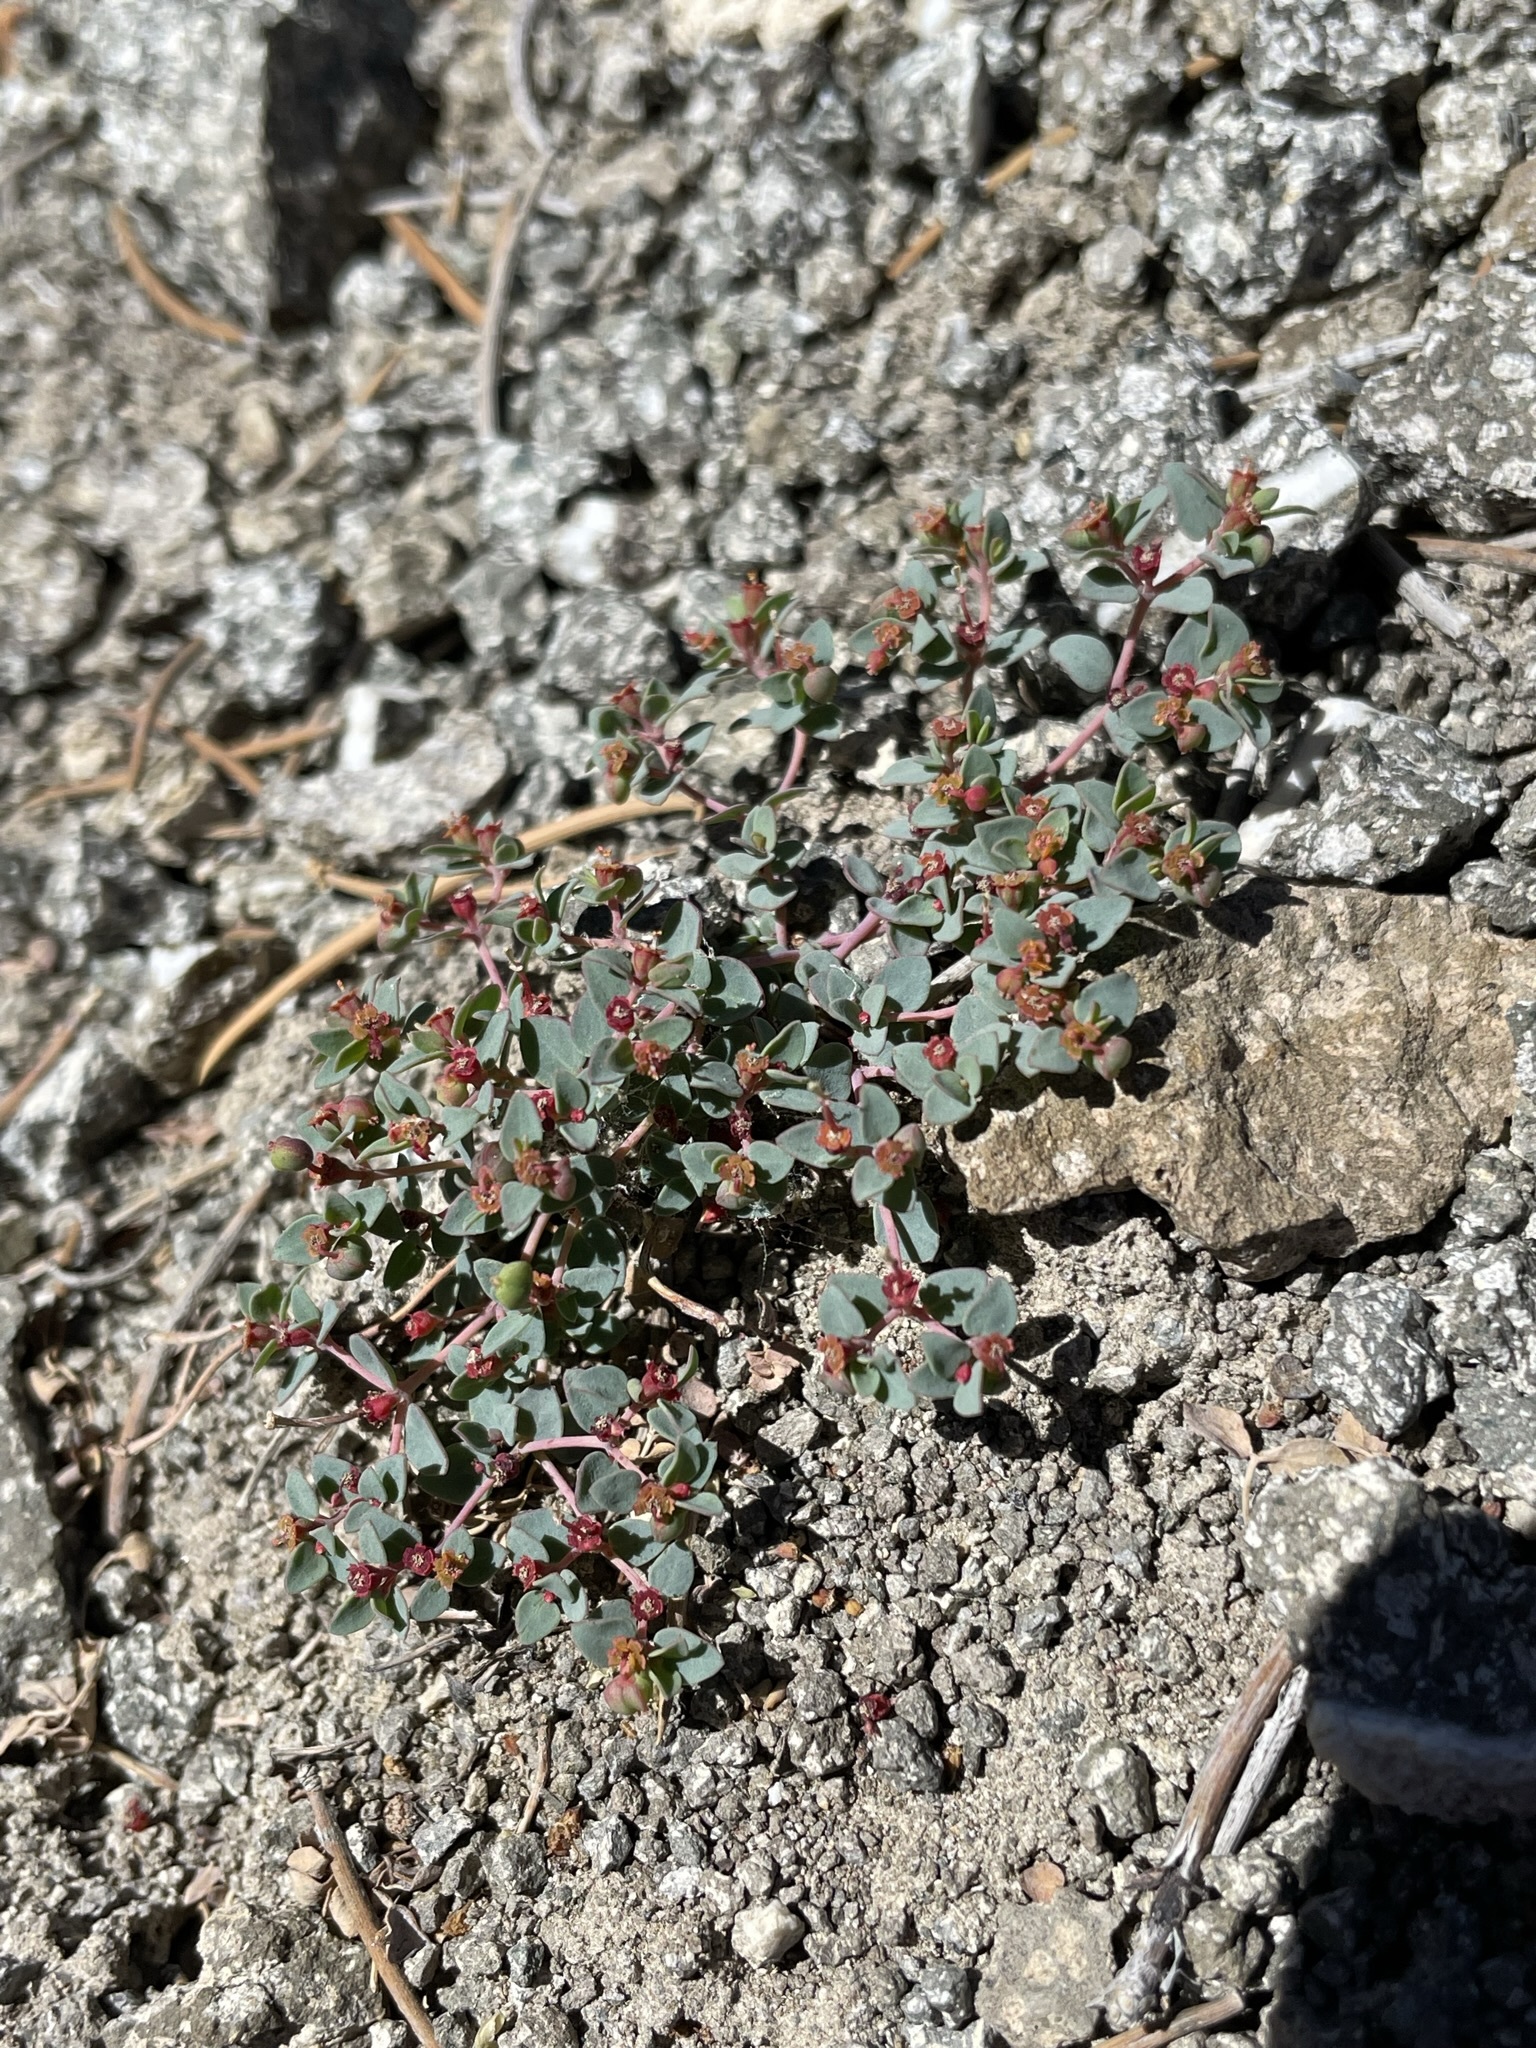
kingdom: Plantae
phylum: Tracheophyta
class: Magnoliopsida
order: Malpighiales
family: Euphorbiaceae
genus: Euphorbia
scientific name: Euphorbia fendleri
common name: Fendler's euphorbia
